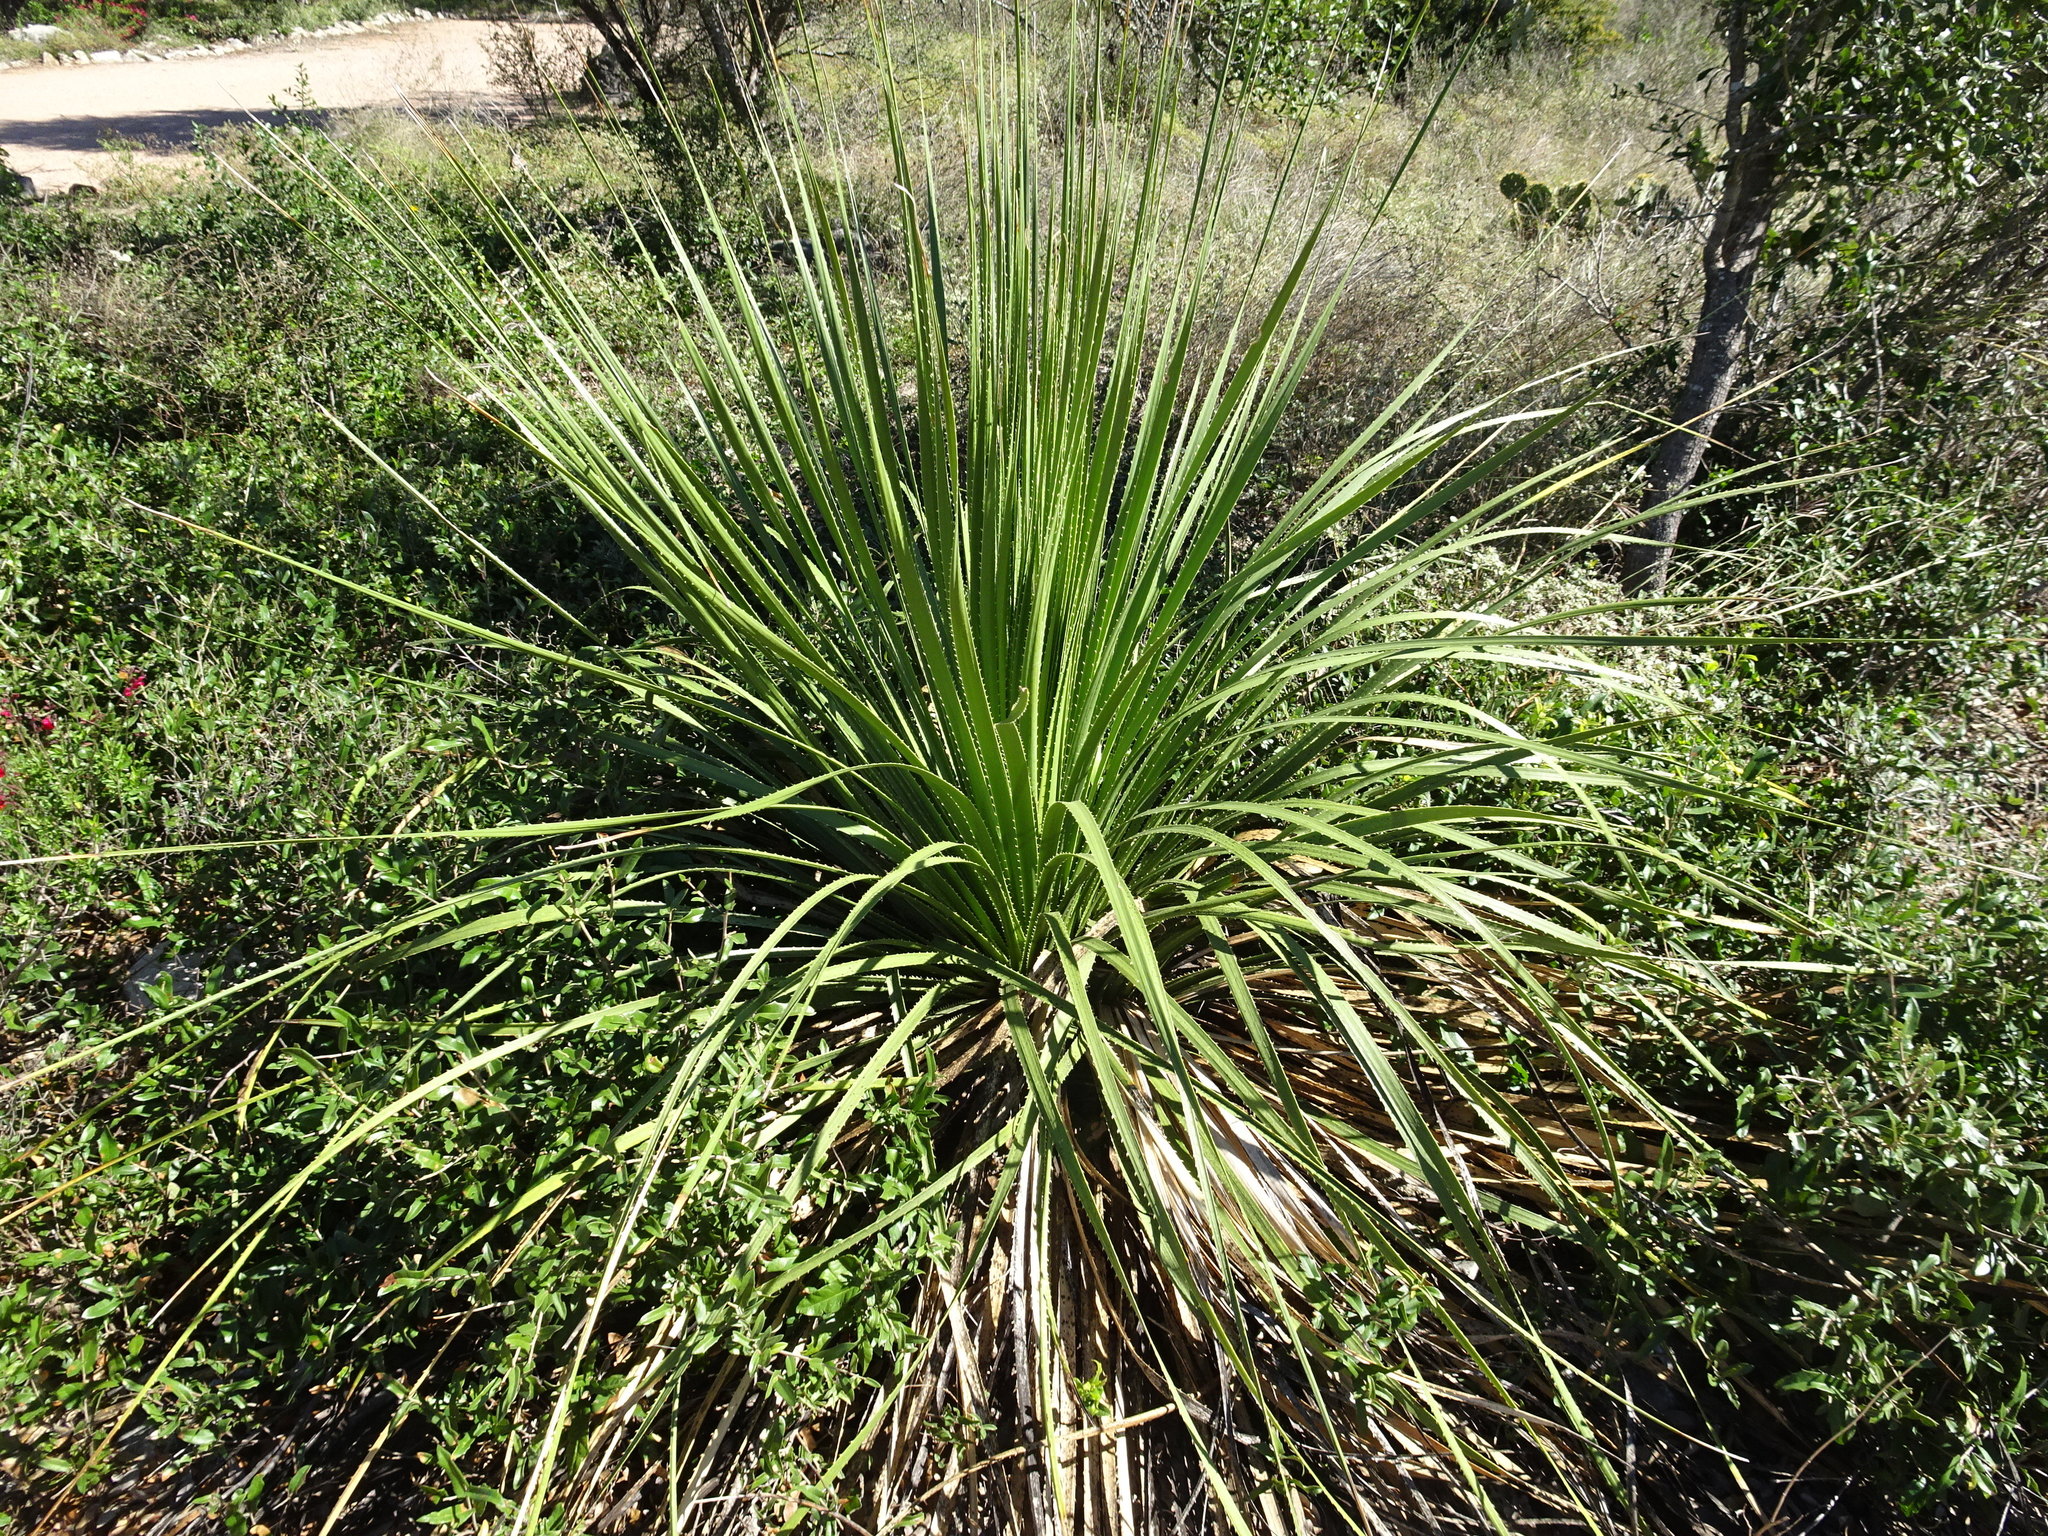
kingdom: Plantae
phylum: Tracheophyta
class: Liliopsida
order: Asparagales
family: Asparagaceae
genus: Dasylirion
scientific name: Dasylirion texanum
